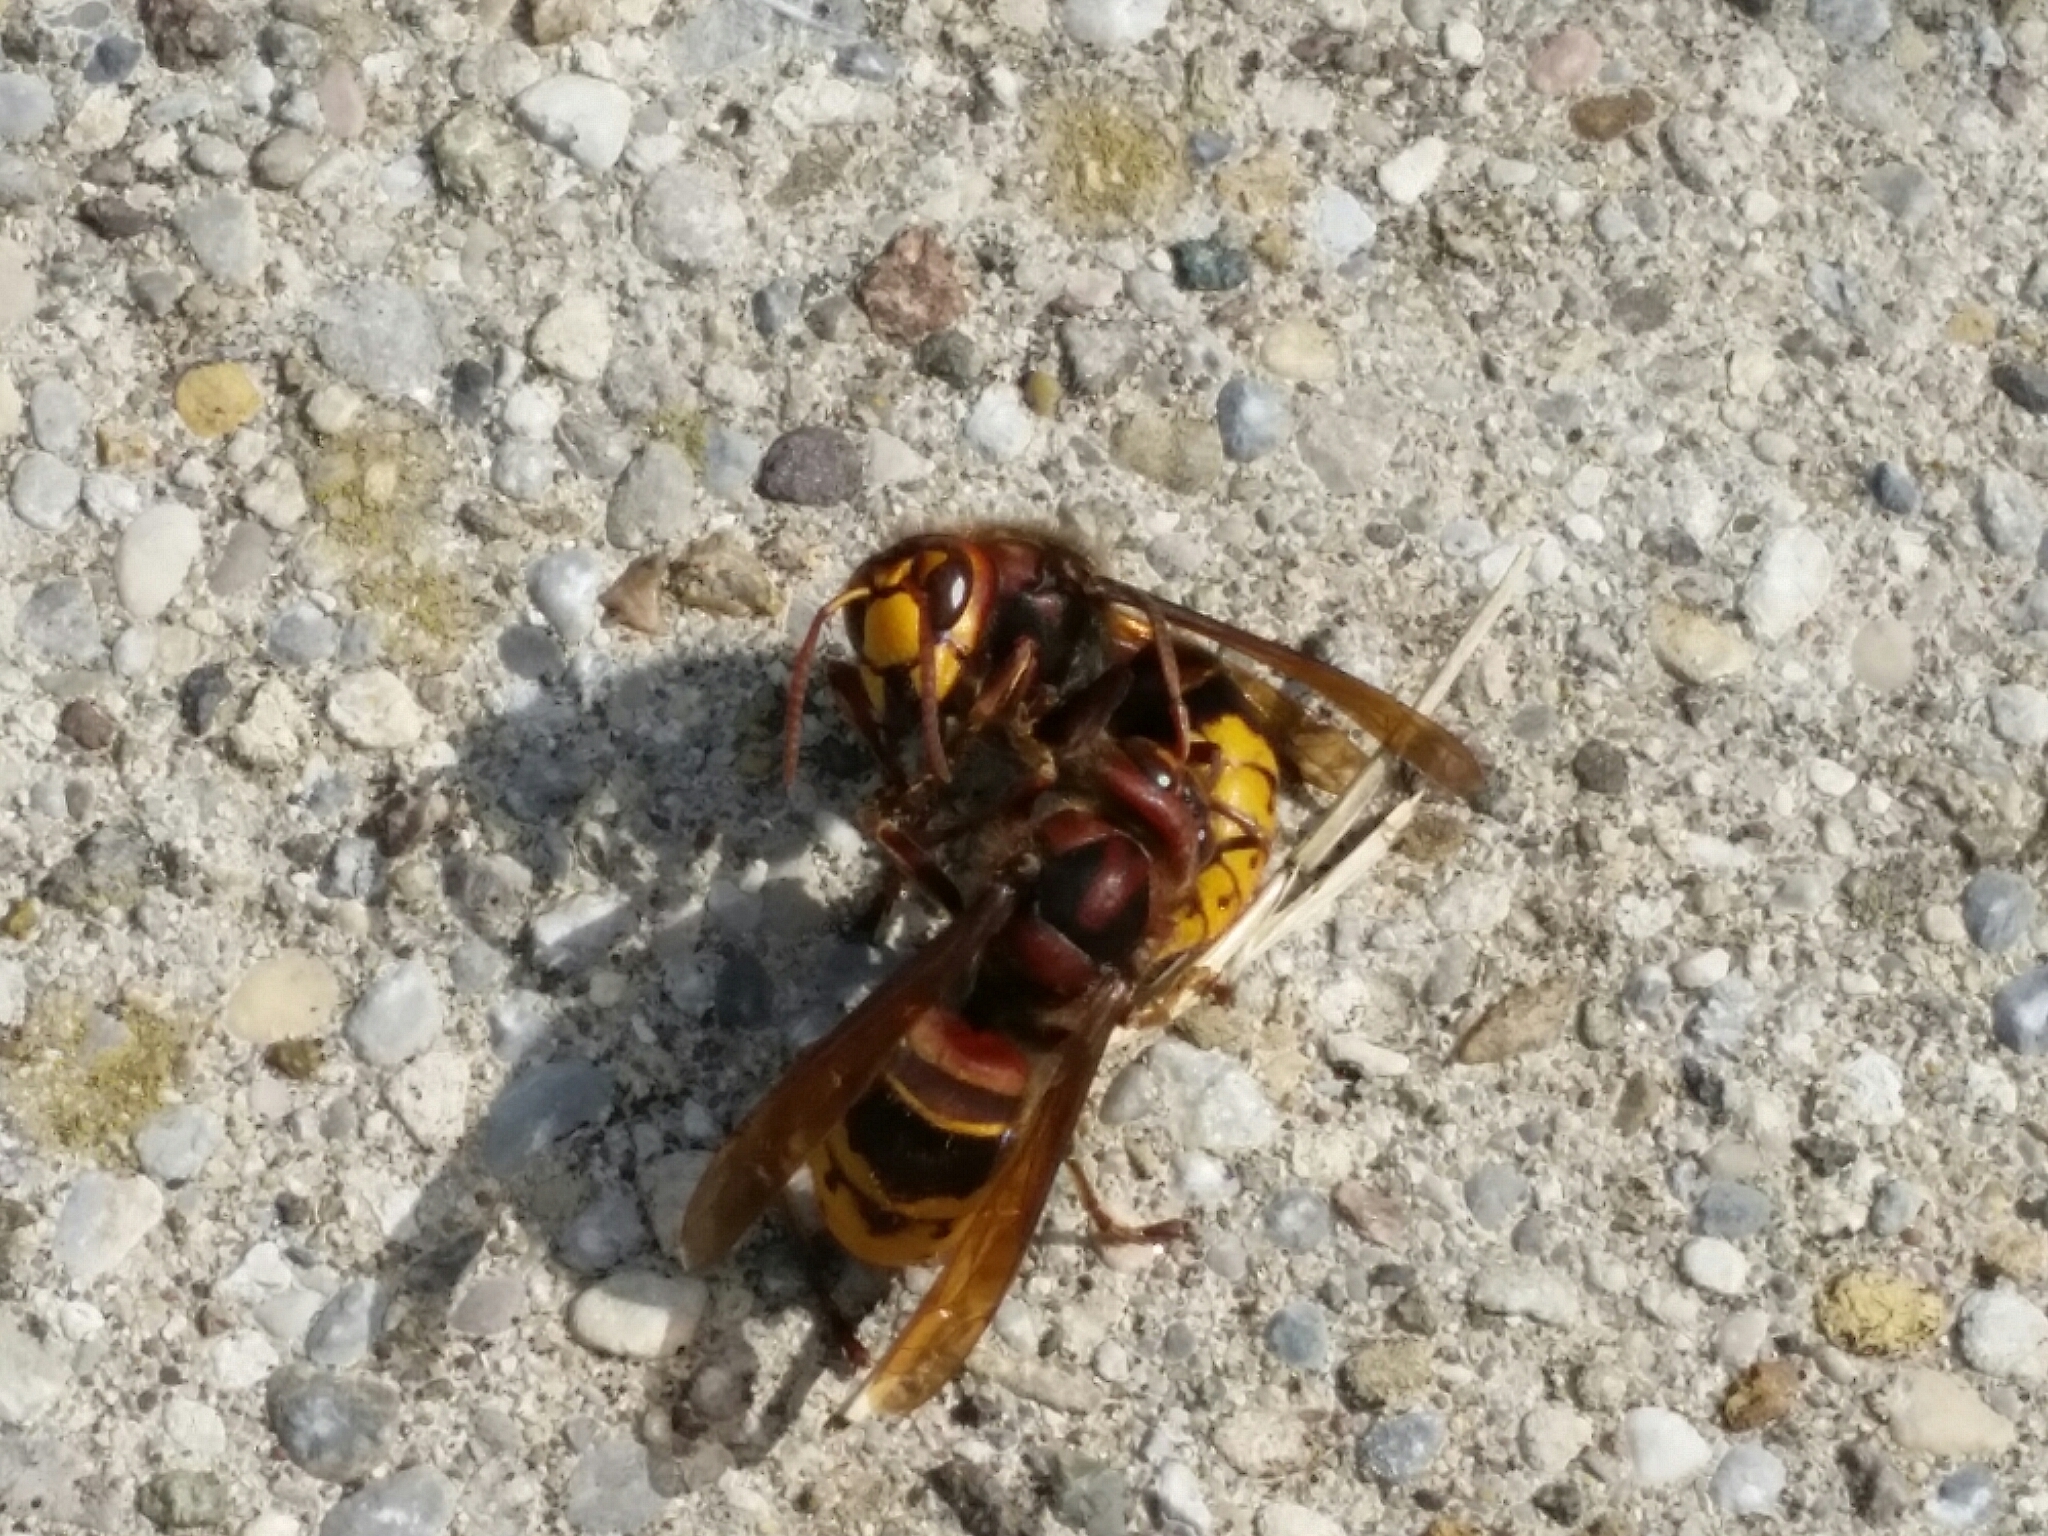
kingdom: Animalia
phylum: Arthropoda
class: Insecta
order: Hymenoptera
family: Vespidae
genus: Vespa
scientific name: Vespa crabro
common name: Hornet
